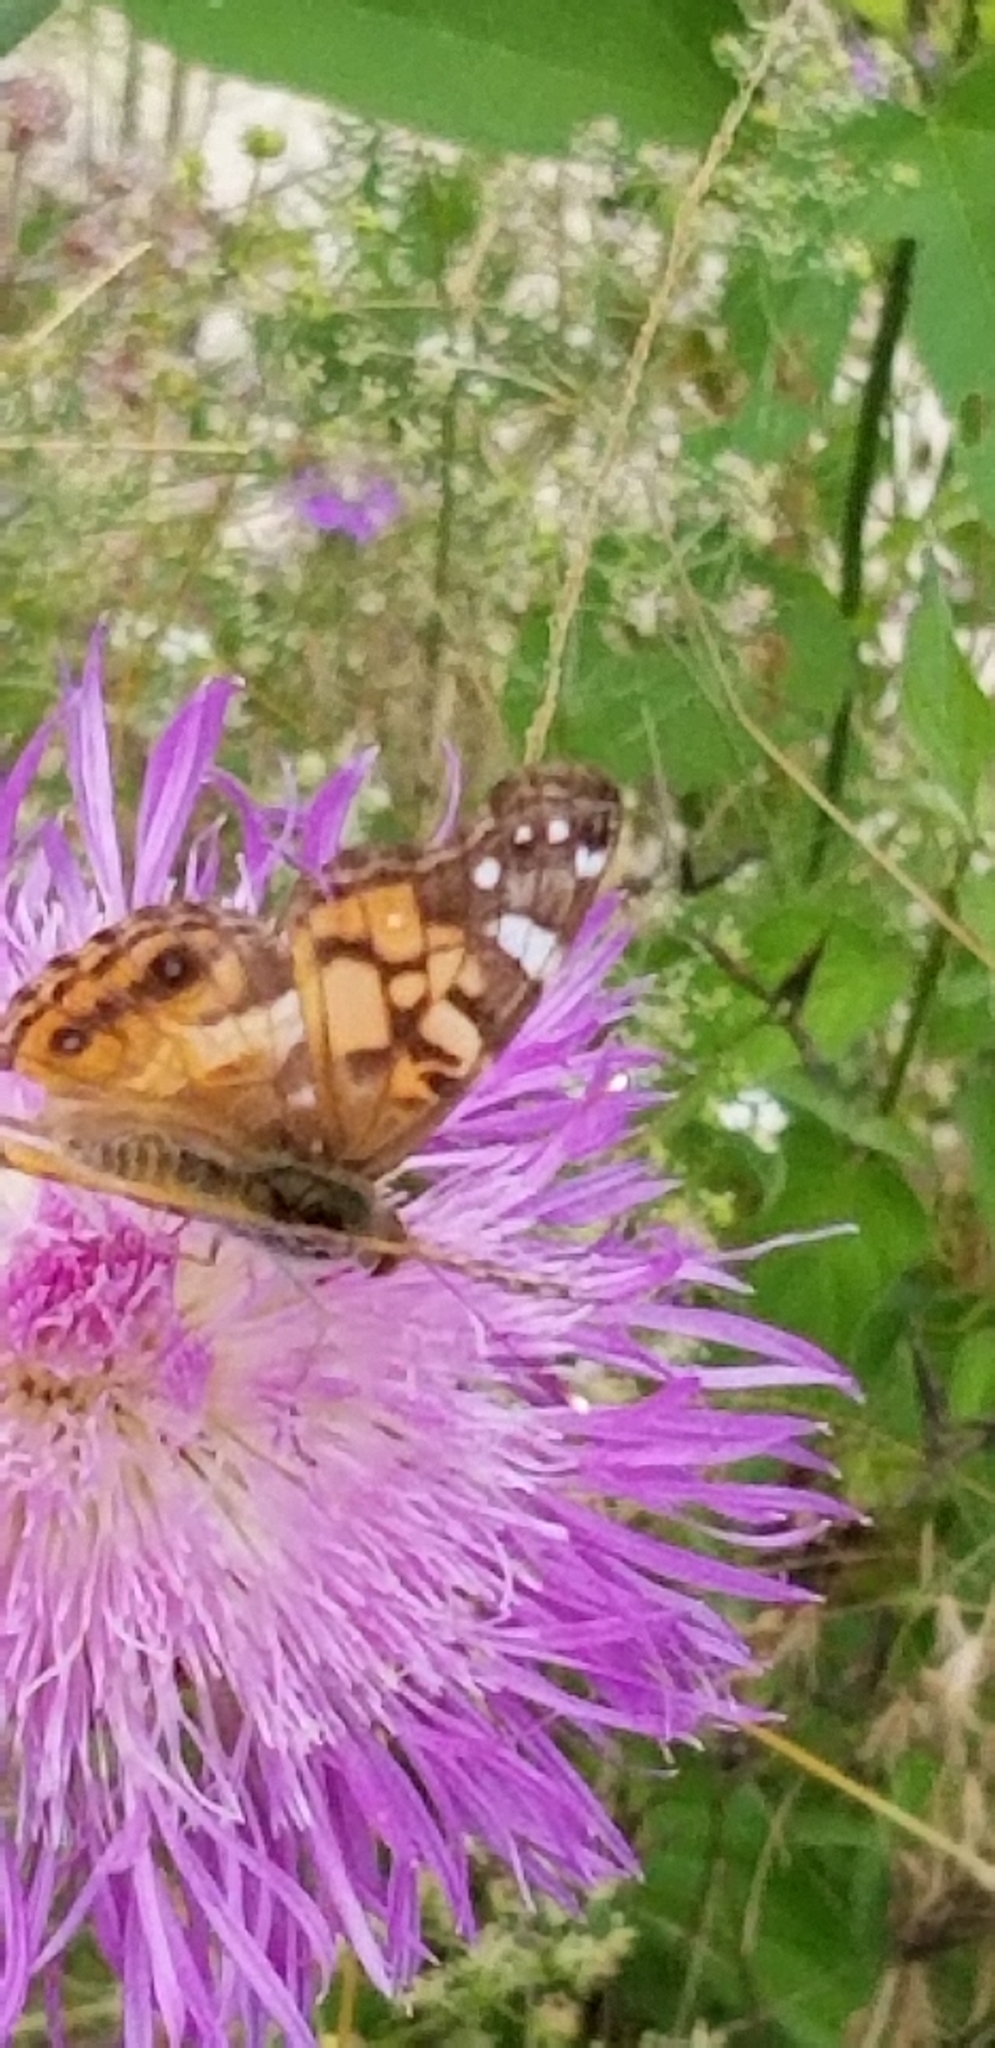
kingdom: Animalia
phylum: Arthropoda
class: Insecta
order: Lepidoptera
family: Nymphalidae
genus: Vanessa
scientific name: Vanessa virginiensis
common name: American lady
